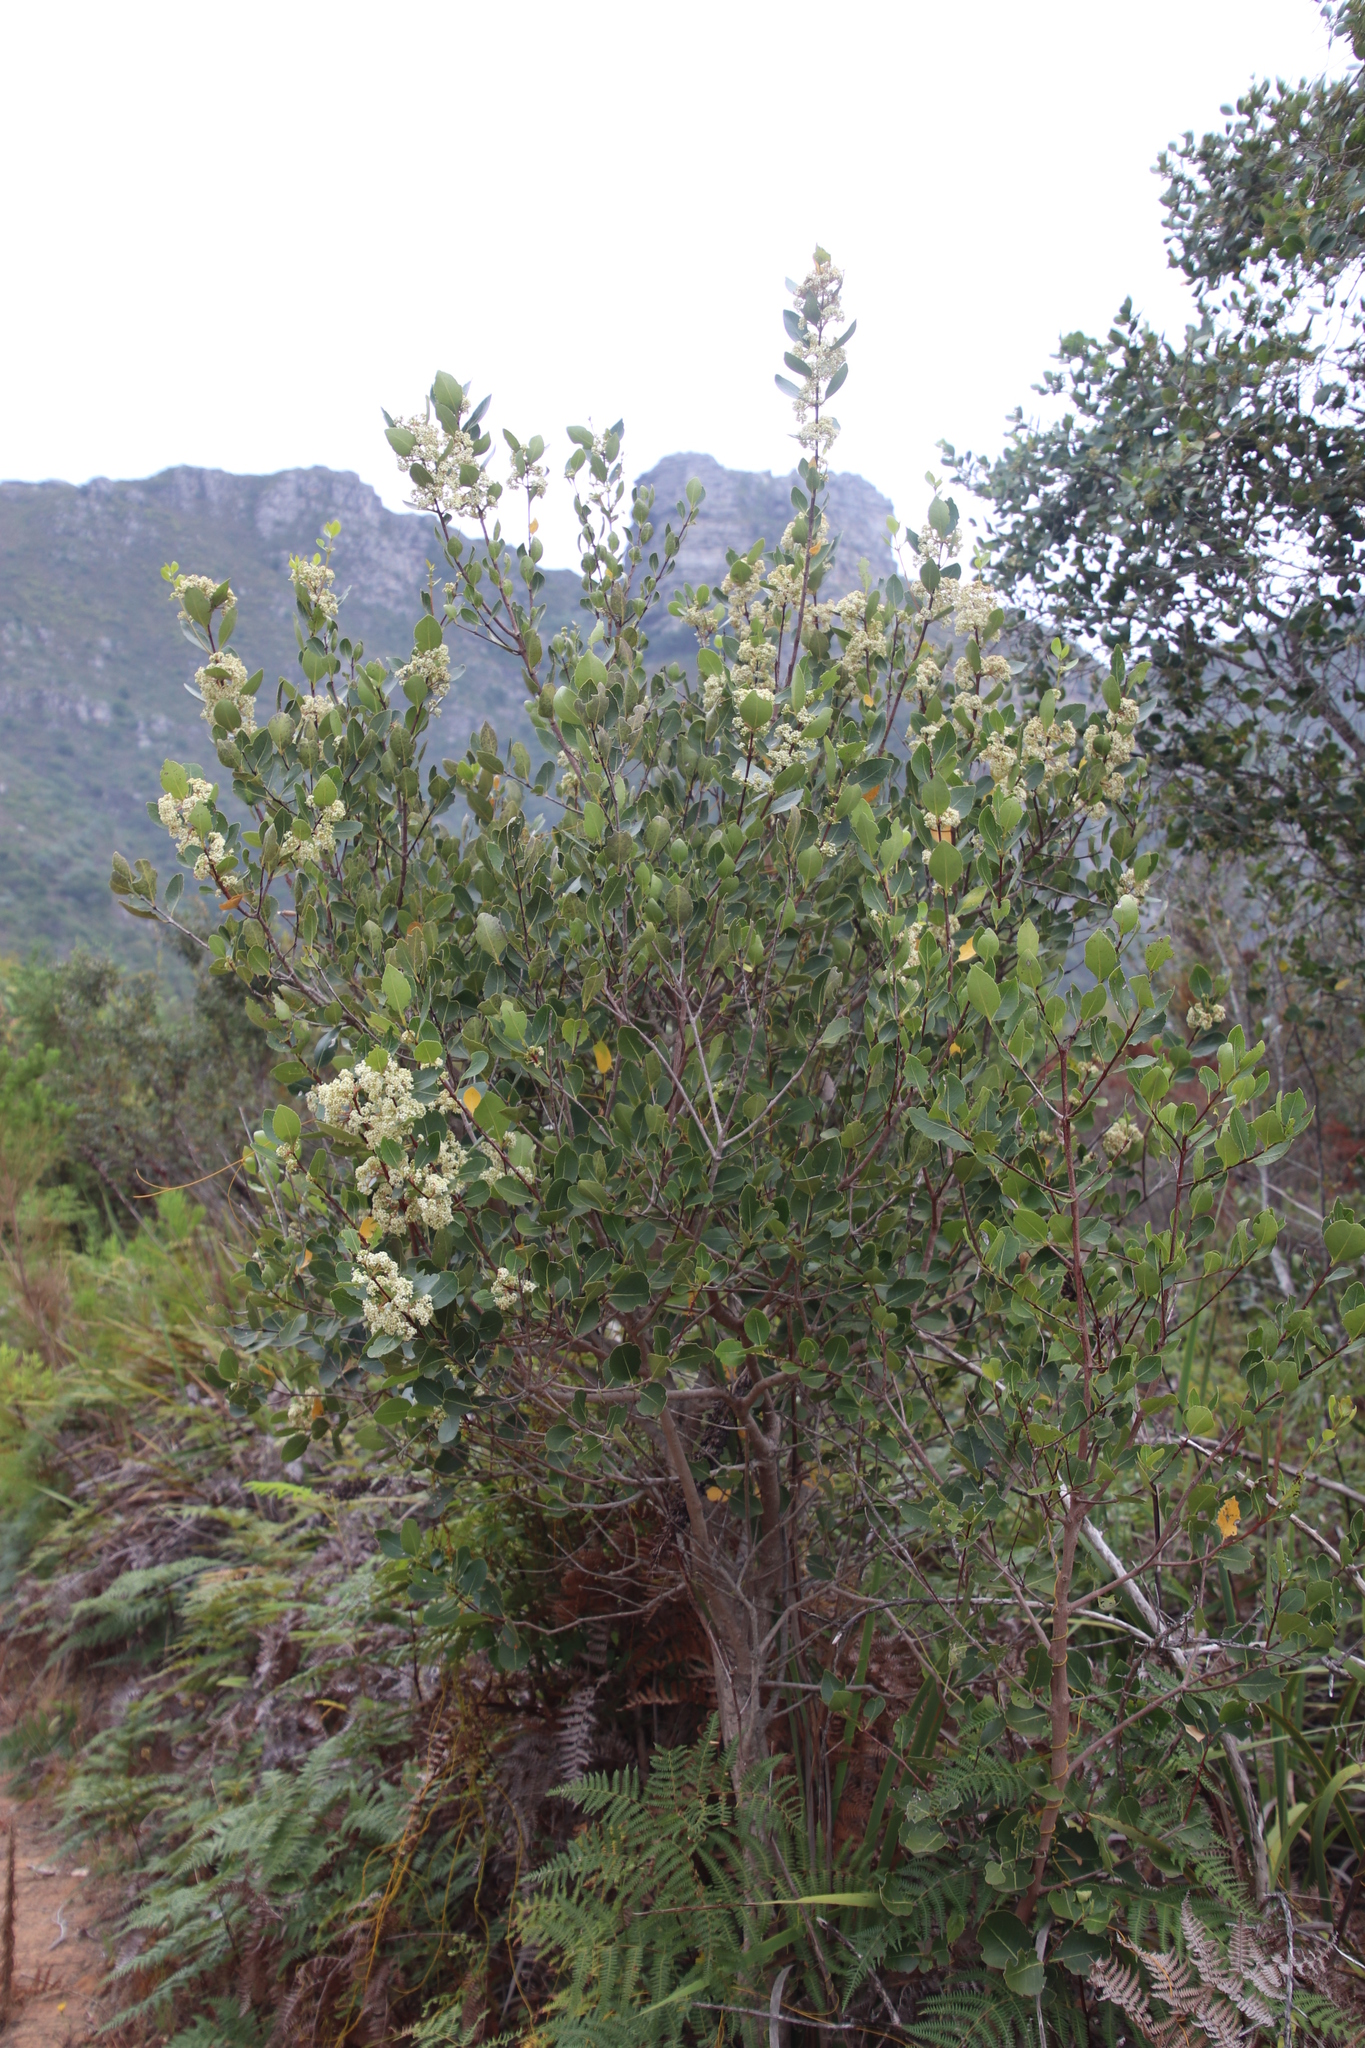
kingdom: Plantae
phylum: Tracheophyta
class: Magnoliopsida
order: Celastrales
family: Celastraceae
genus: Cassine
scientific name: Cassine peragua
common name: Cape saffron
